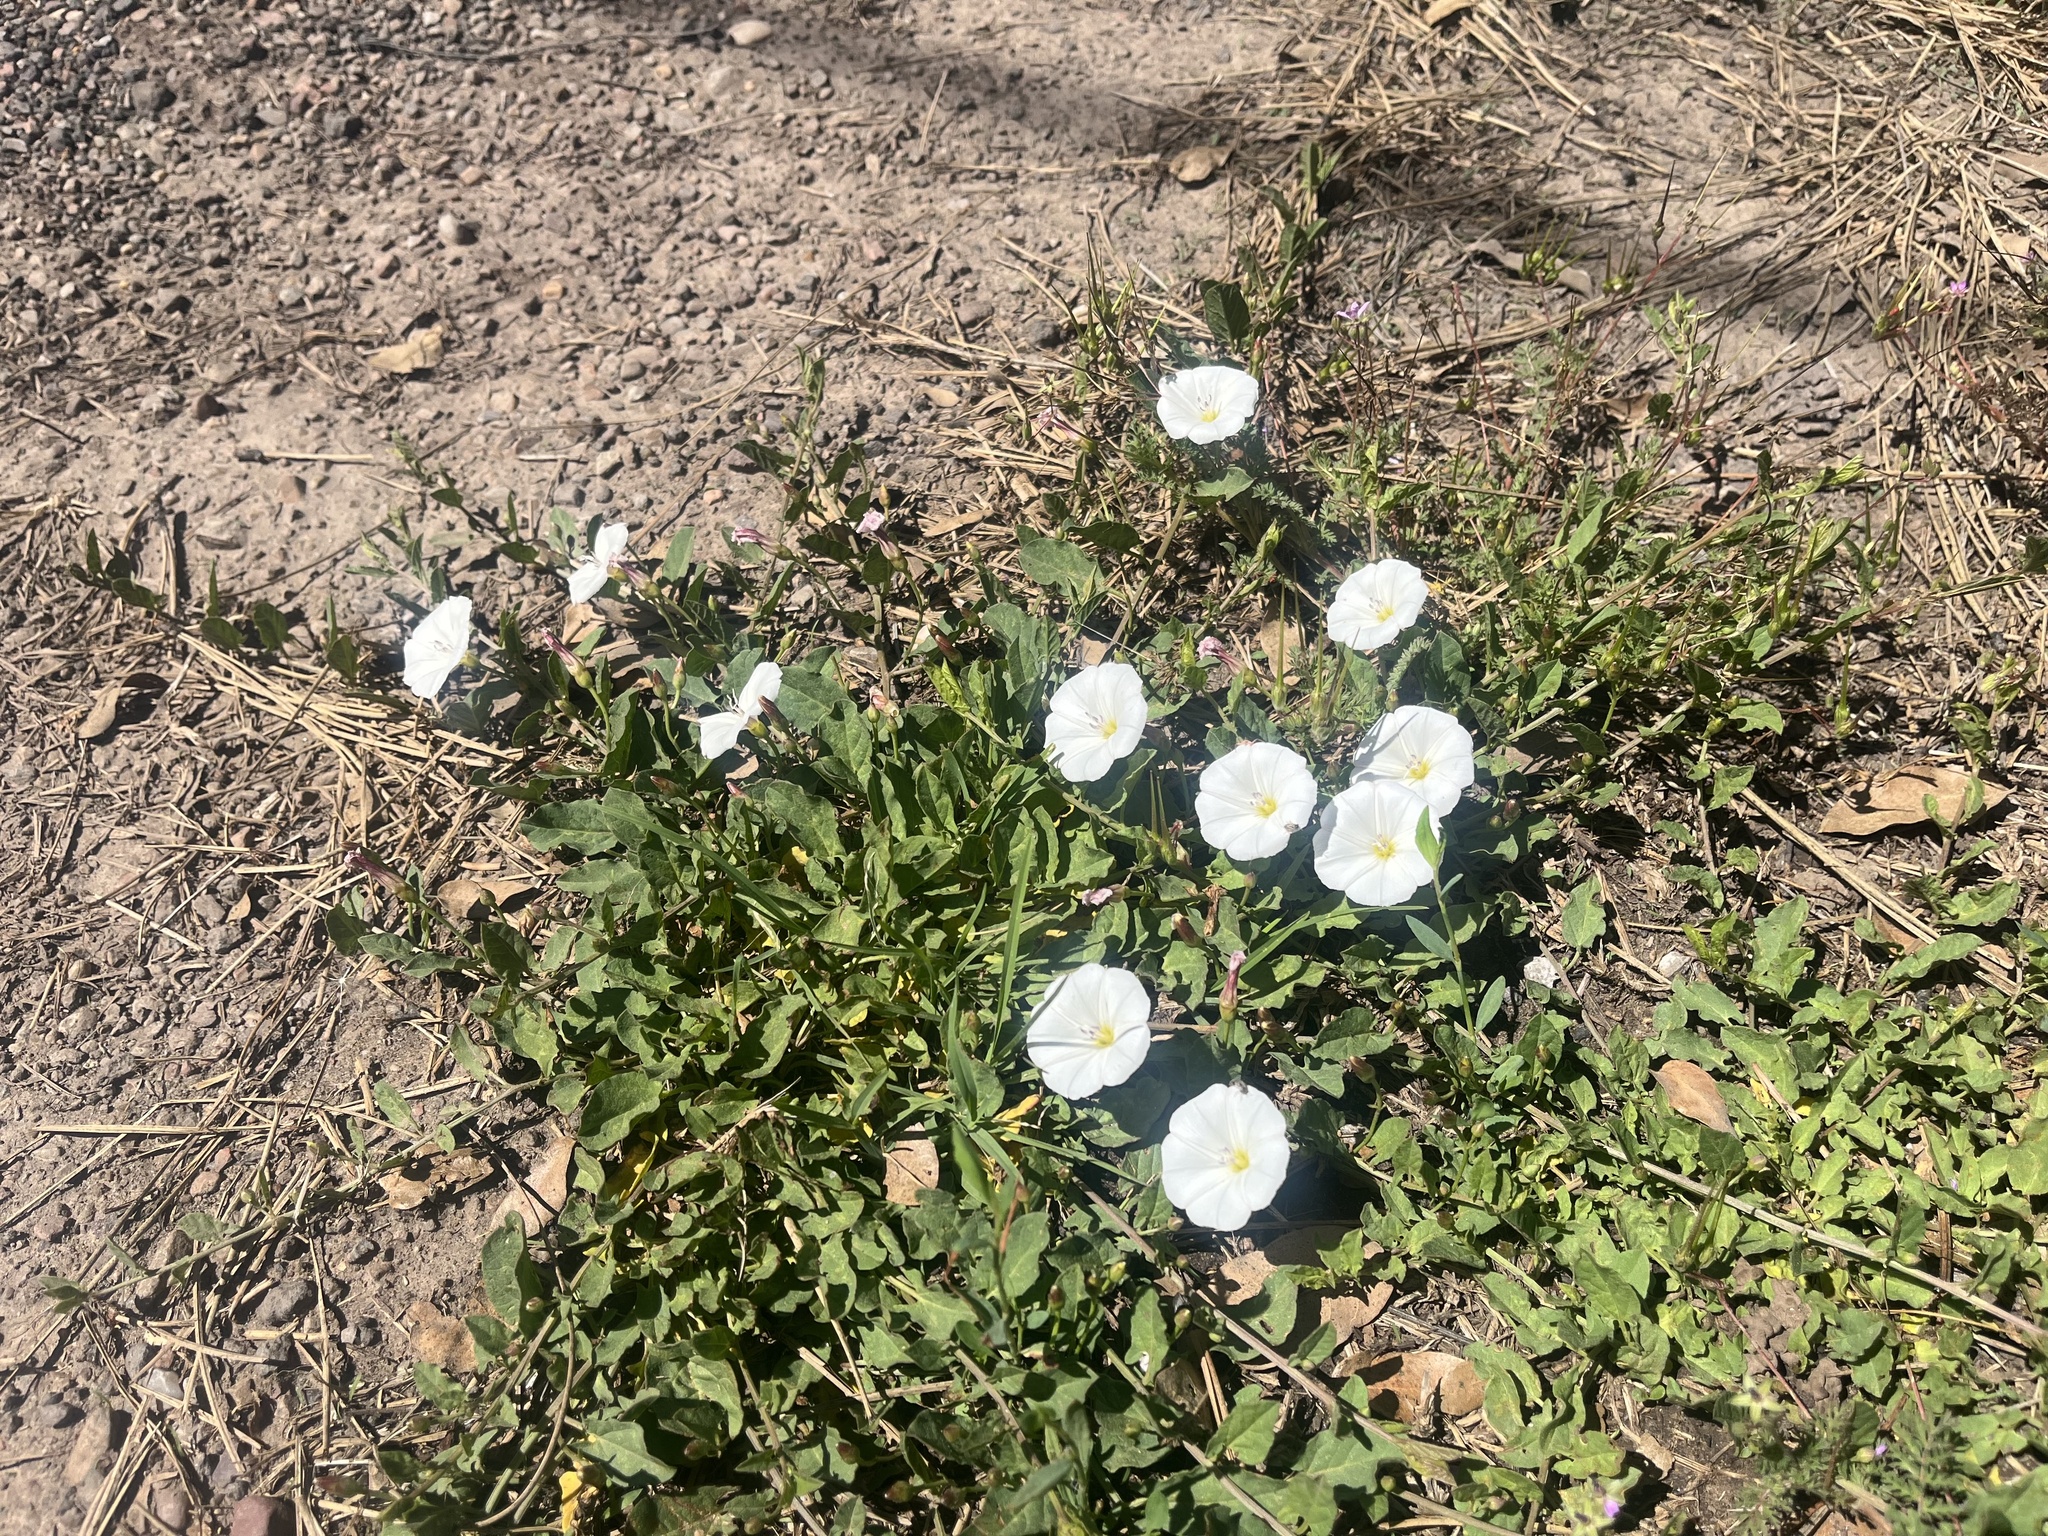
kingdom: Plantae
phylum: Tracheophyta
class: Magnoliopsida
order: Solanales
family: Convolvulaceae
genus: Convolvulus
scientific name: Convolvulus arvensis
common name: Field bindweed
